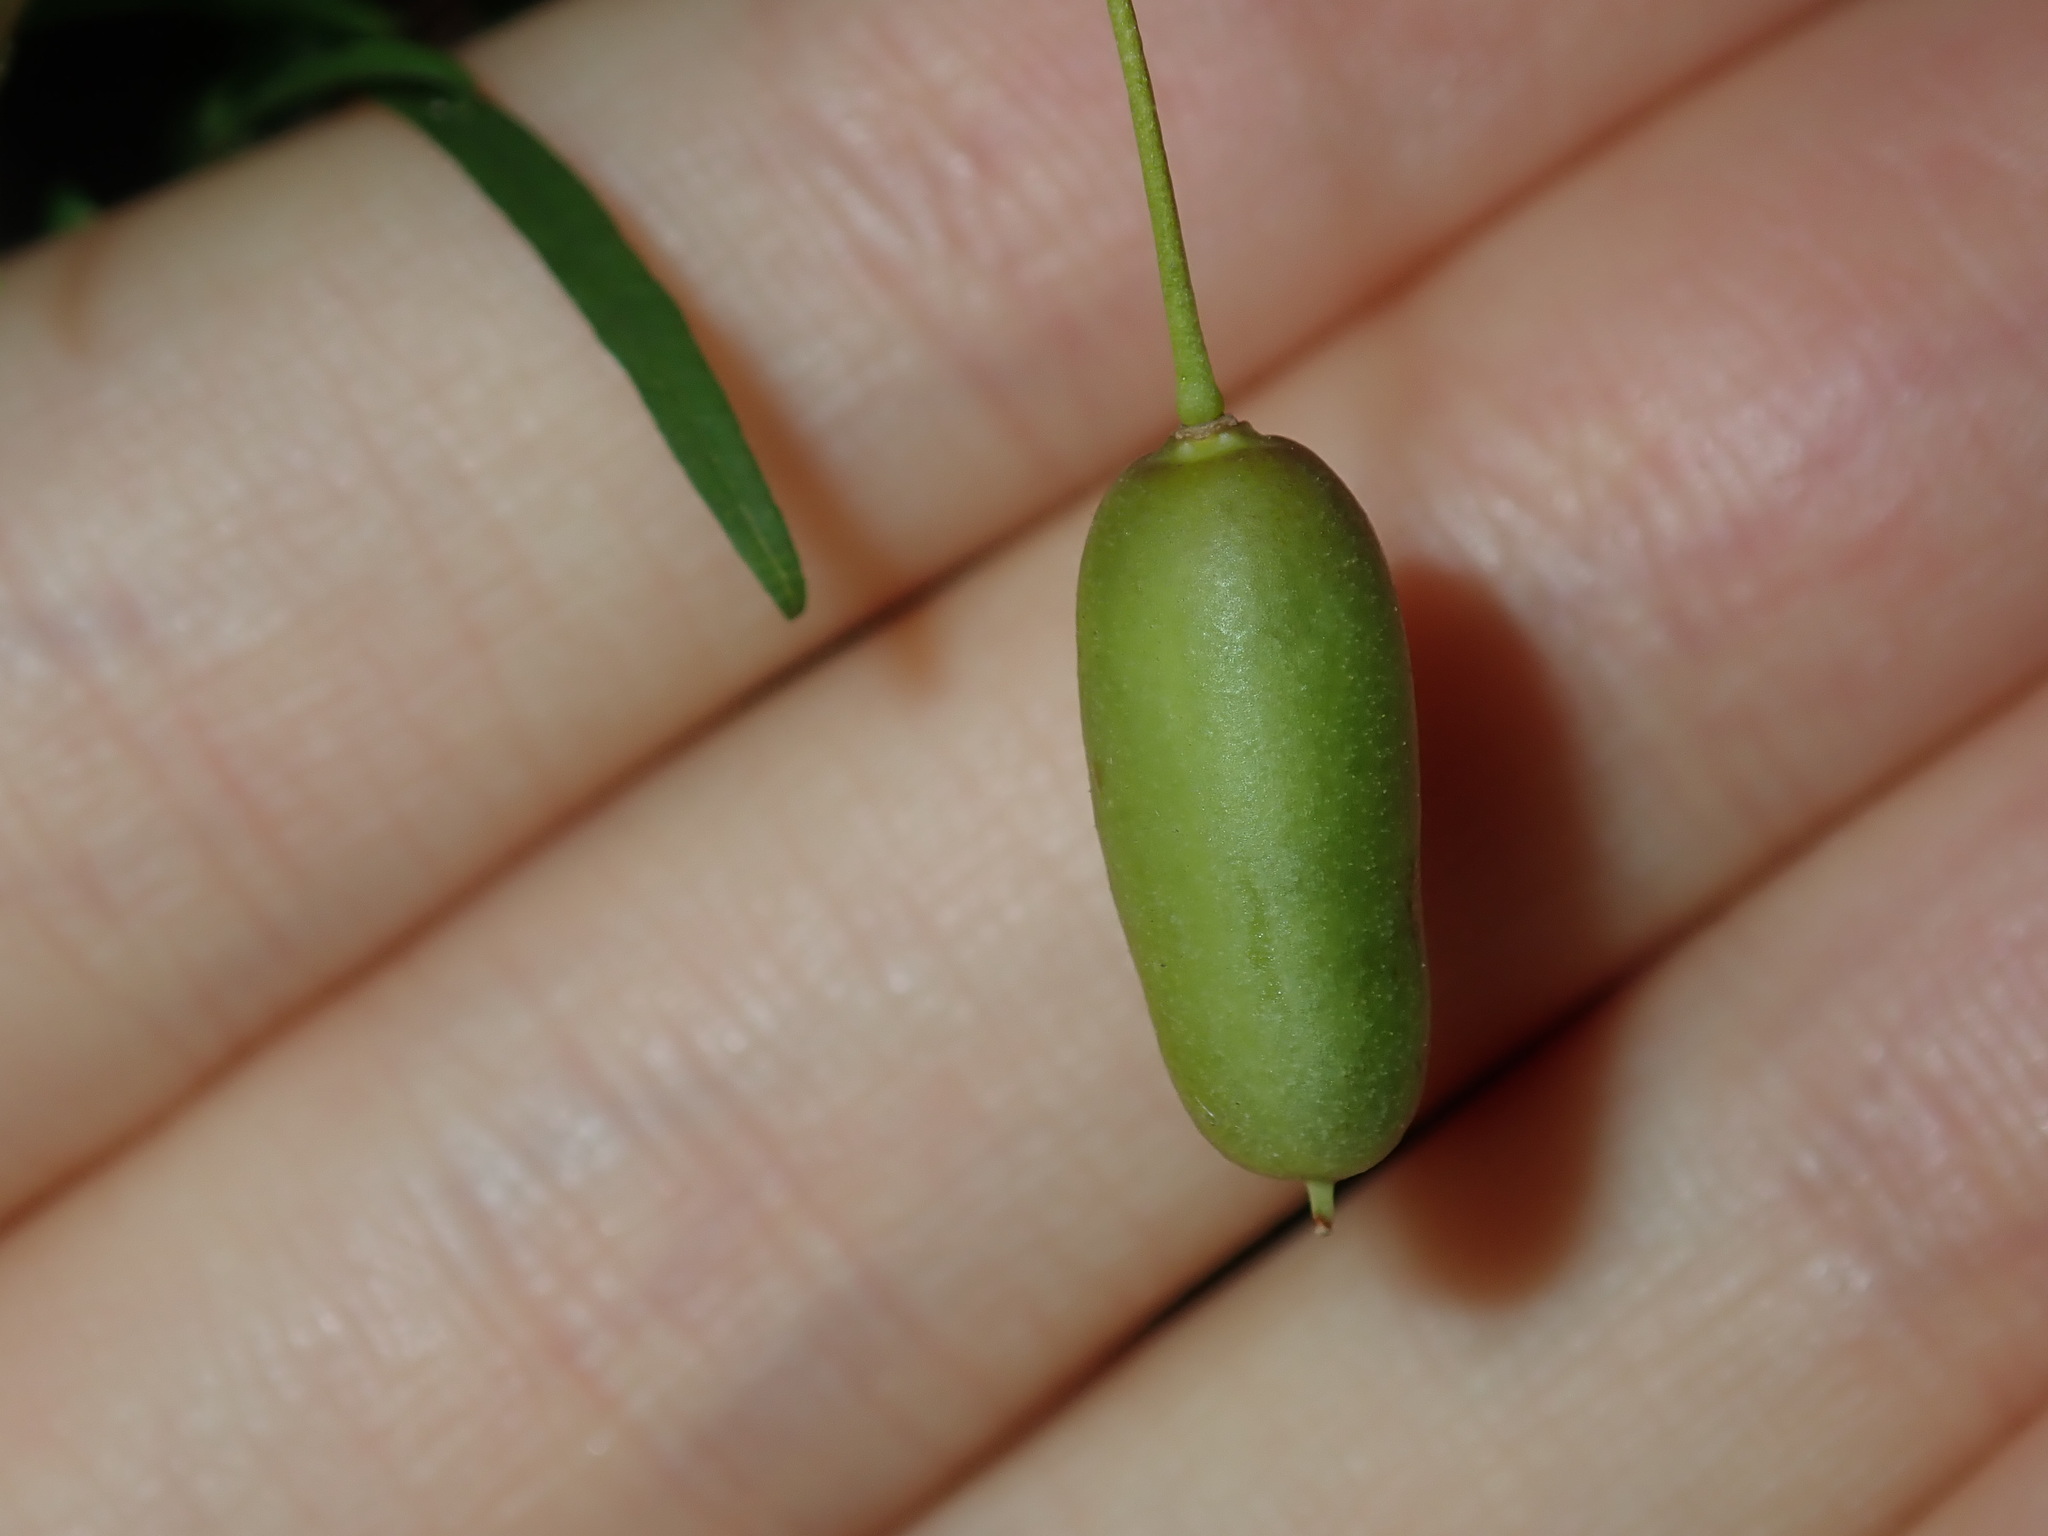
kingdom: Plantae
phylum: Tracheophyta
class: Magnoliopsida
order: Apiales
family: Pittosporaceae
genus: Billardiera
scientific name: Billardiera mutabilis
